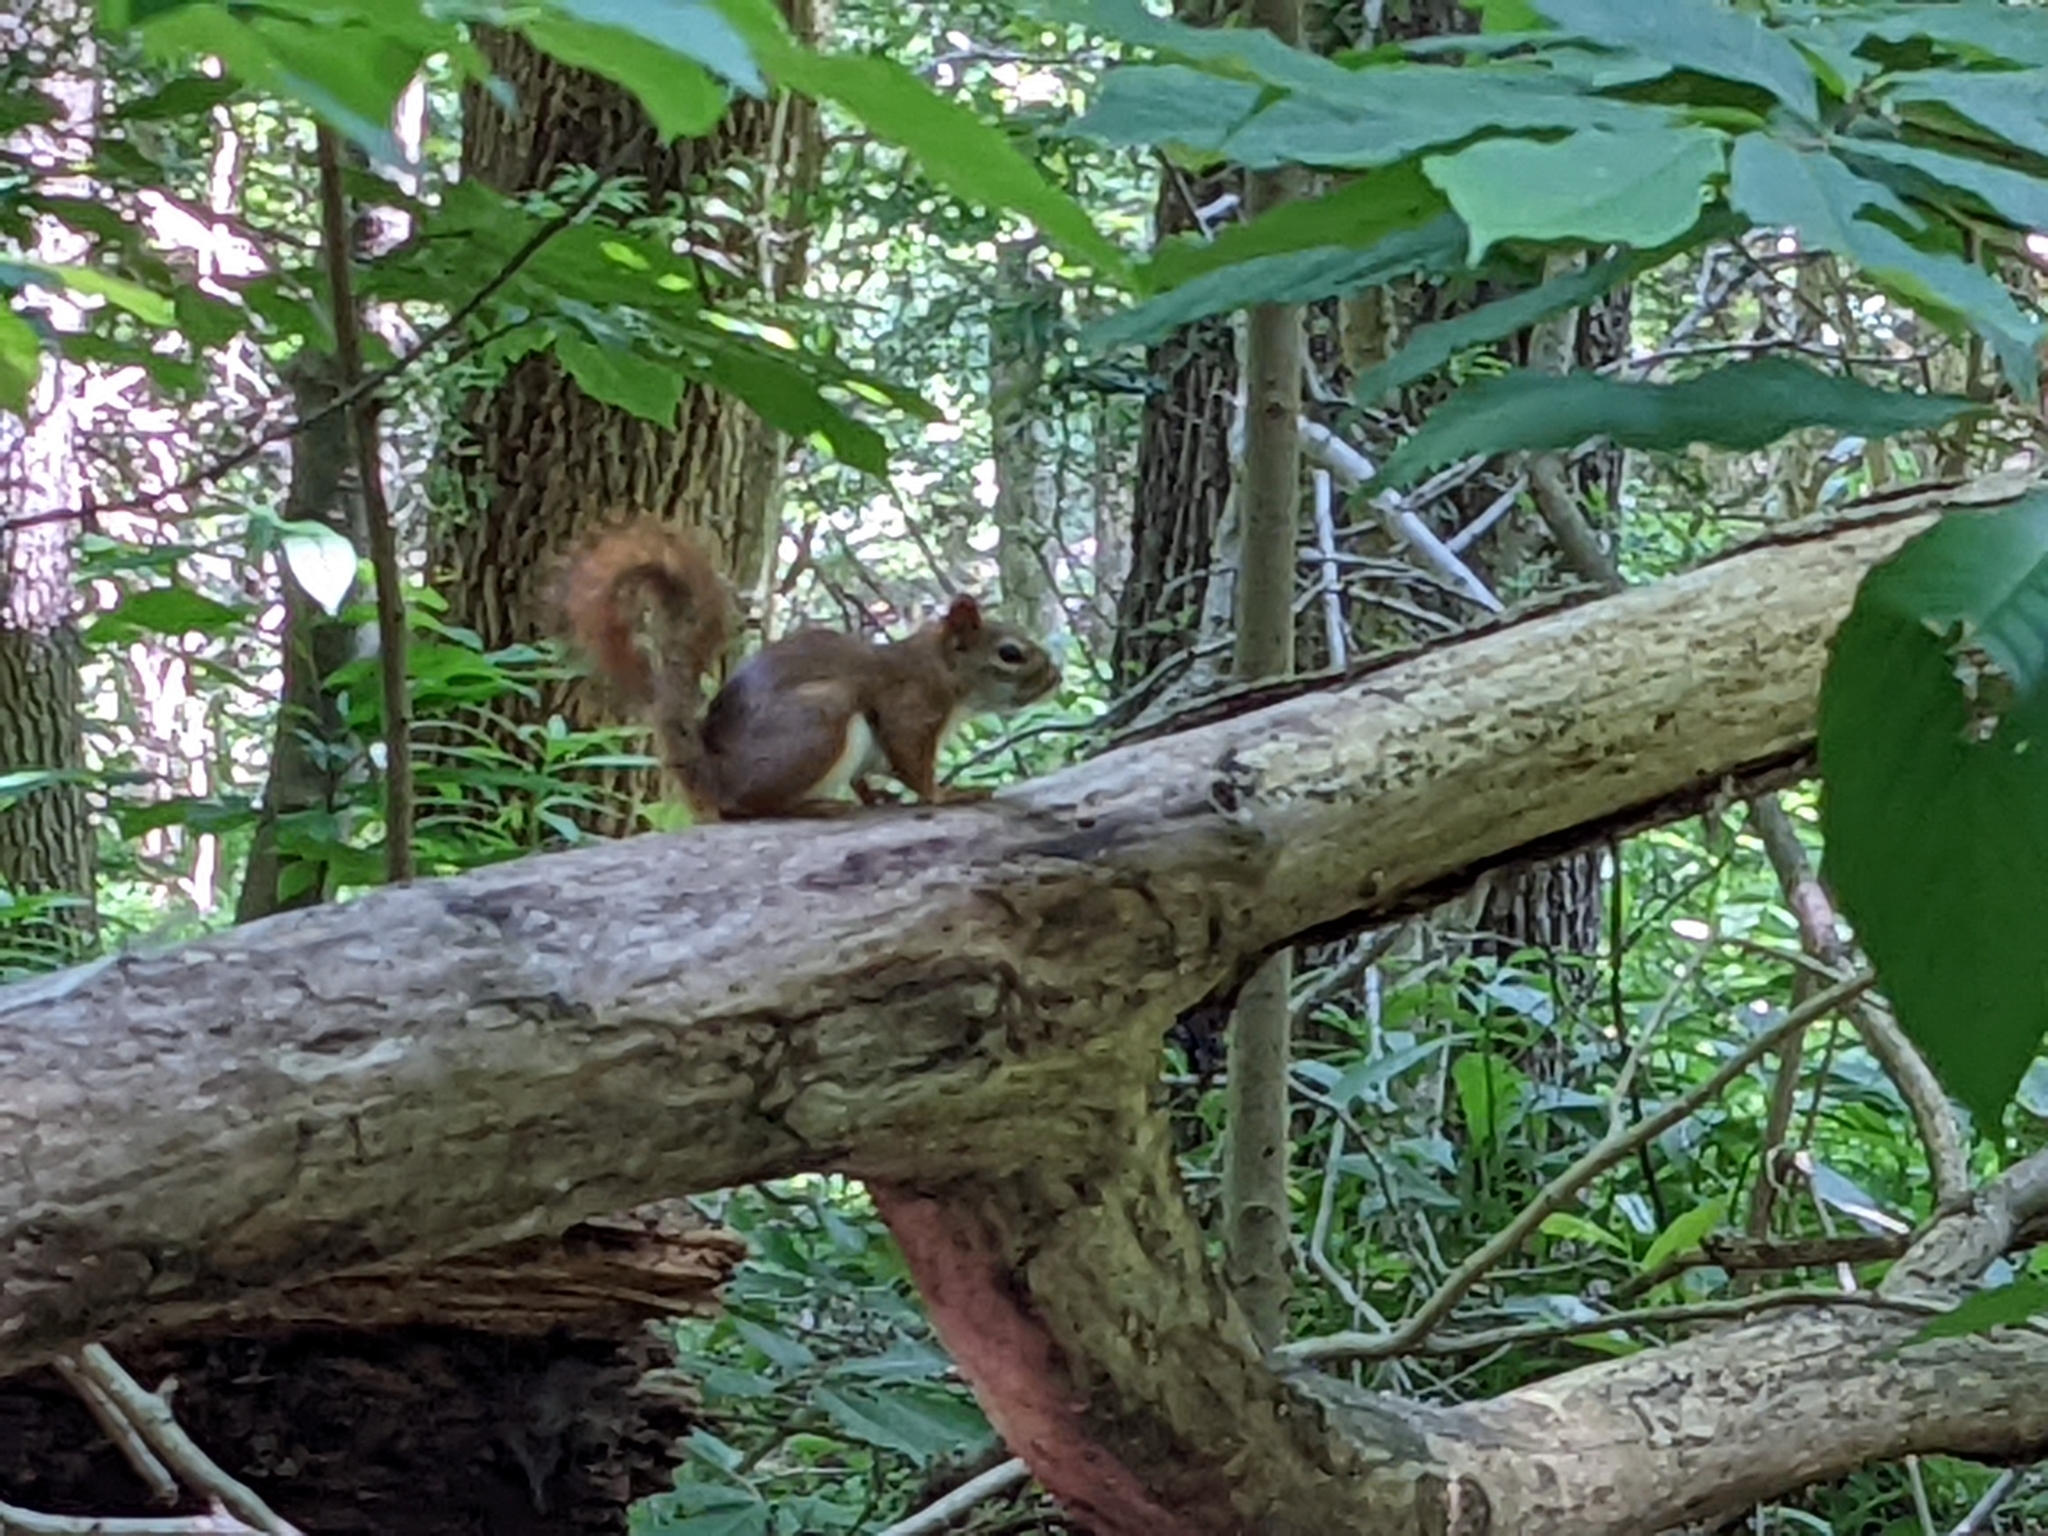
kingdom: Animalia
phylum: Chordata
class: Mammalia
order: Rodentia
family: Sciuridae
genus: Tamiasciurus
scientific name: Tamiasciurus hudsonicus
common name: Red squirrel
